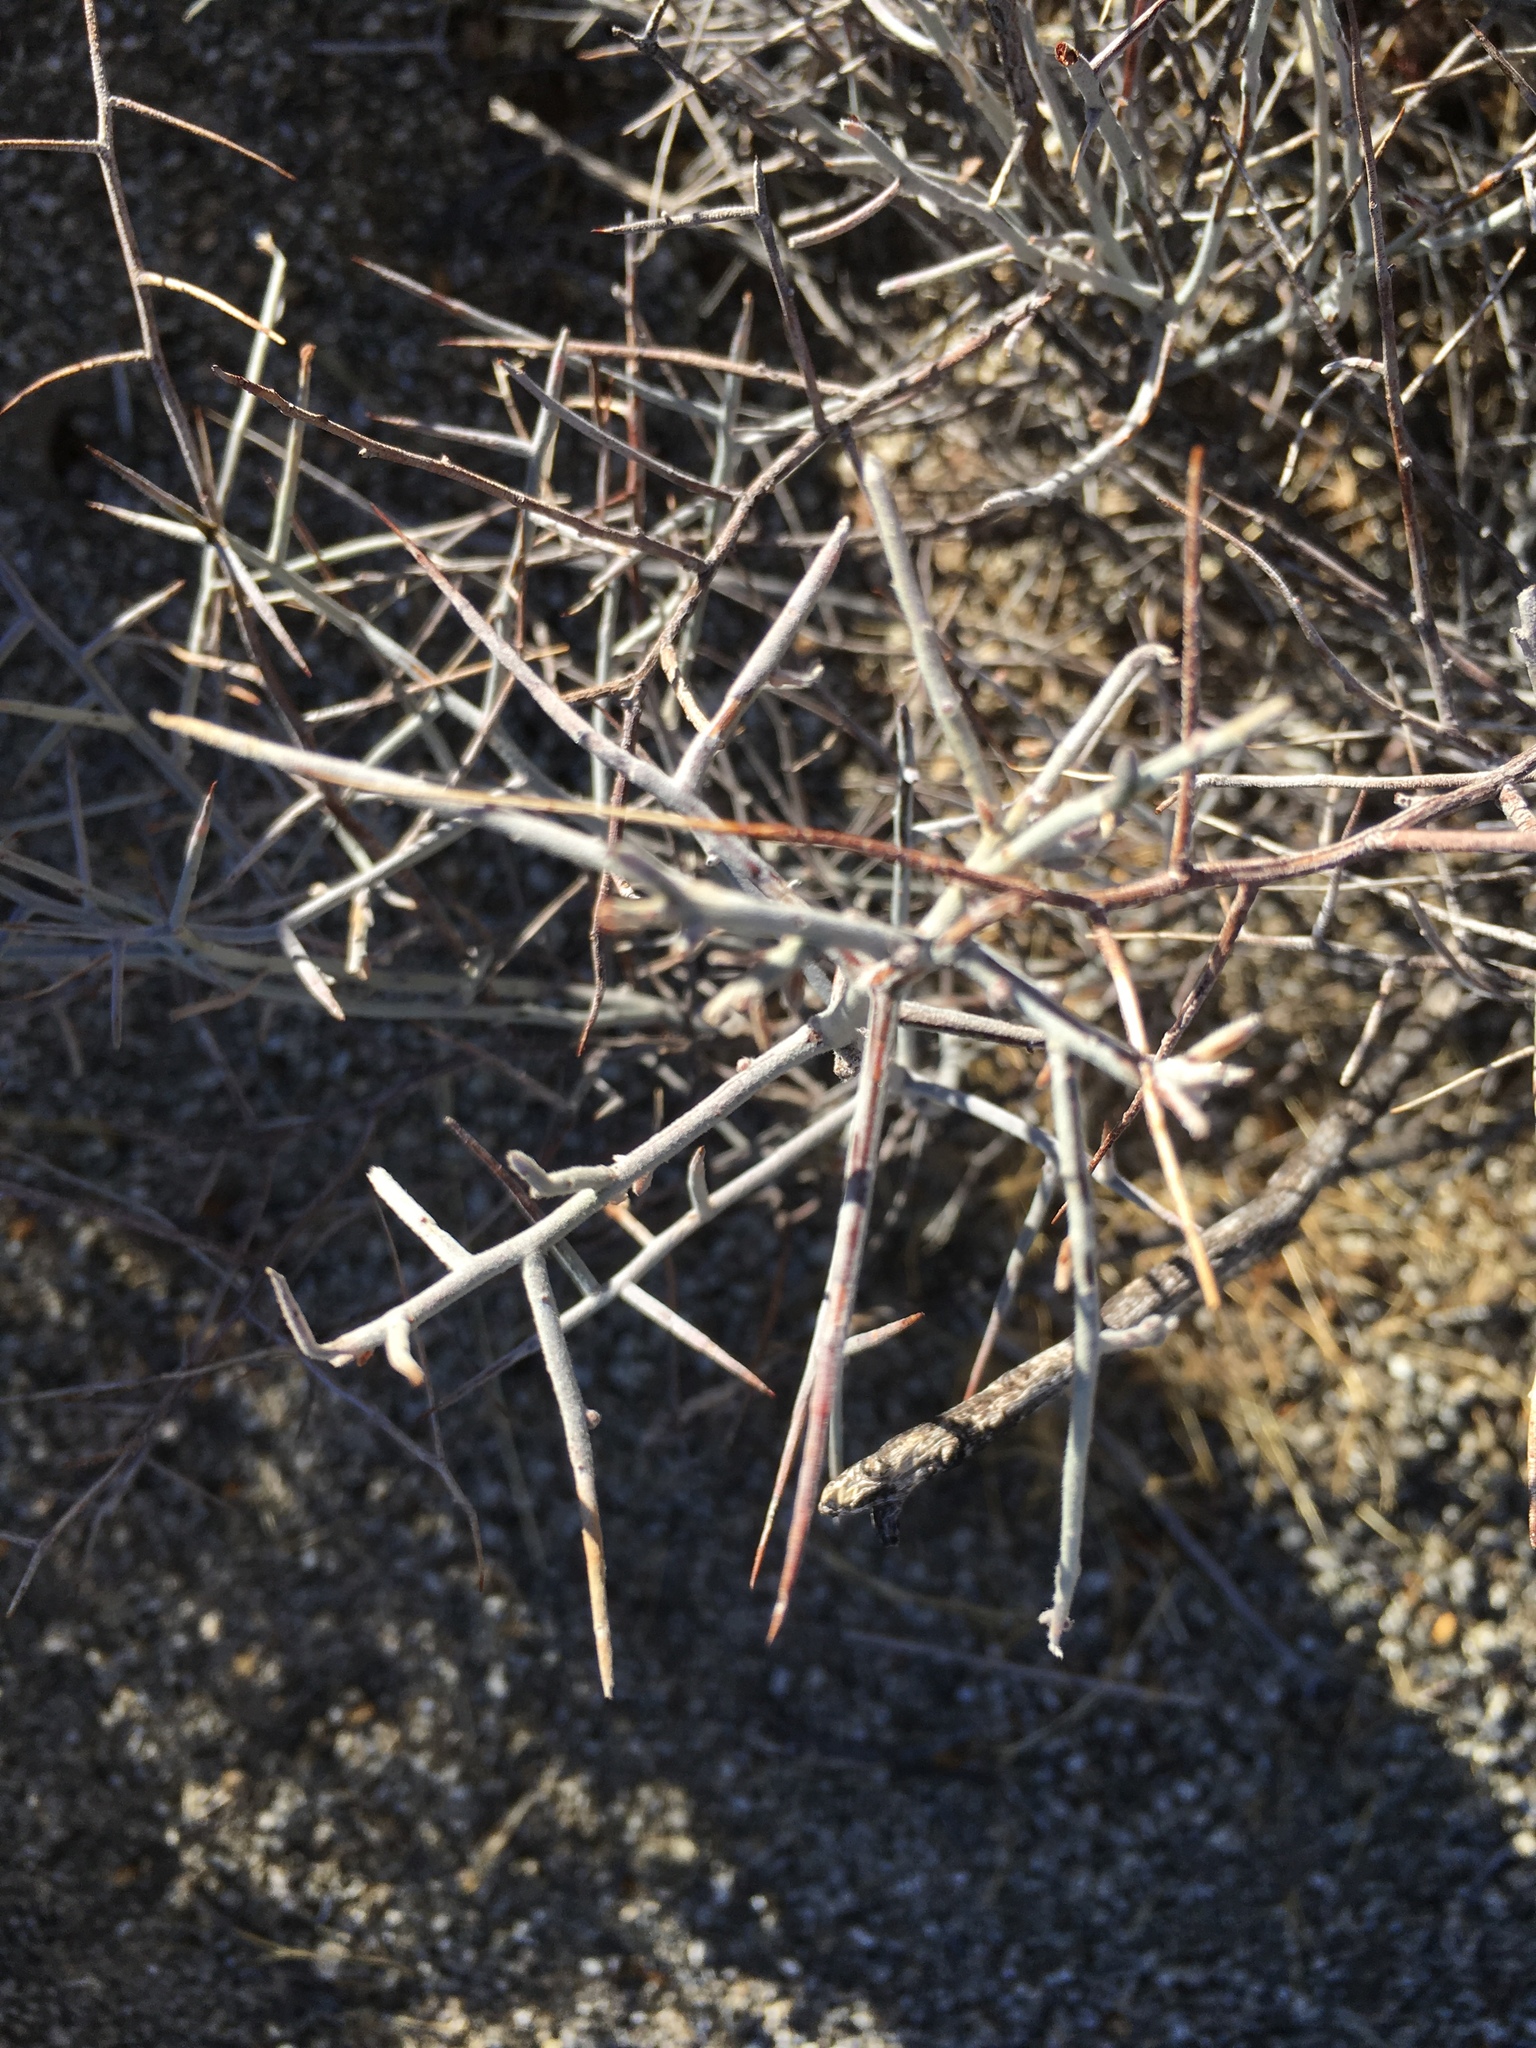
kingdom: Plantae
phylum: Tracheophyta
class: Magnoliopsida
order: Zygophyllales
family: Krameriaceae
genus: Krameria
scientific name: Krameria bicolor
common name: White ratany
